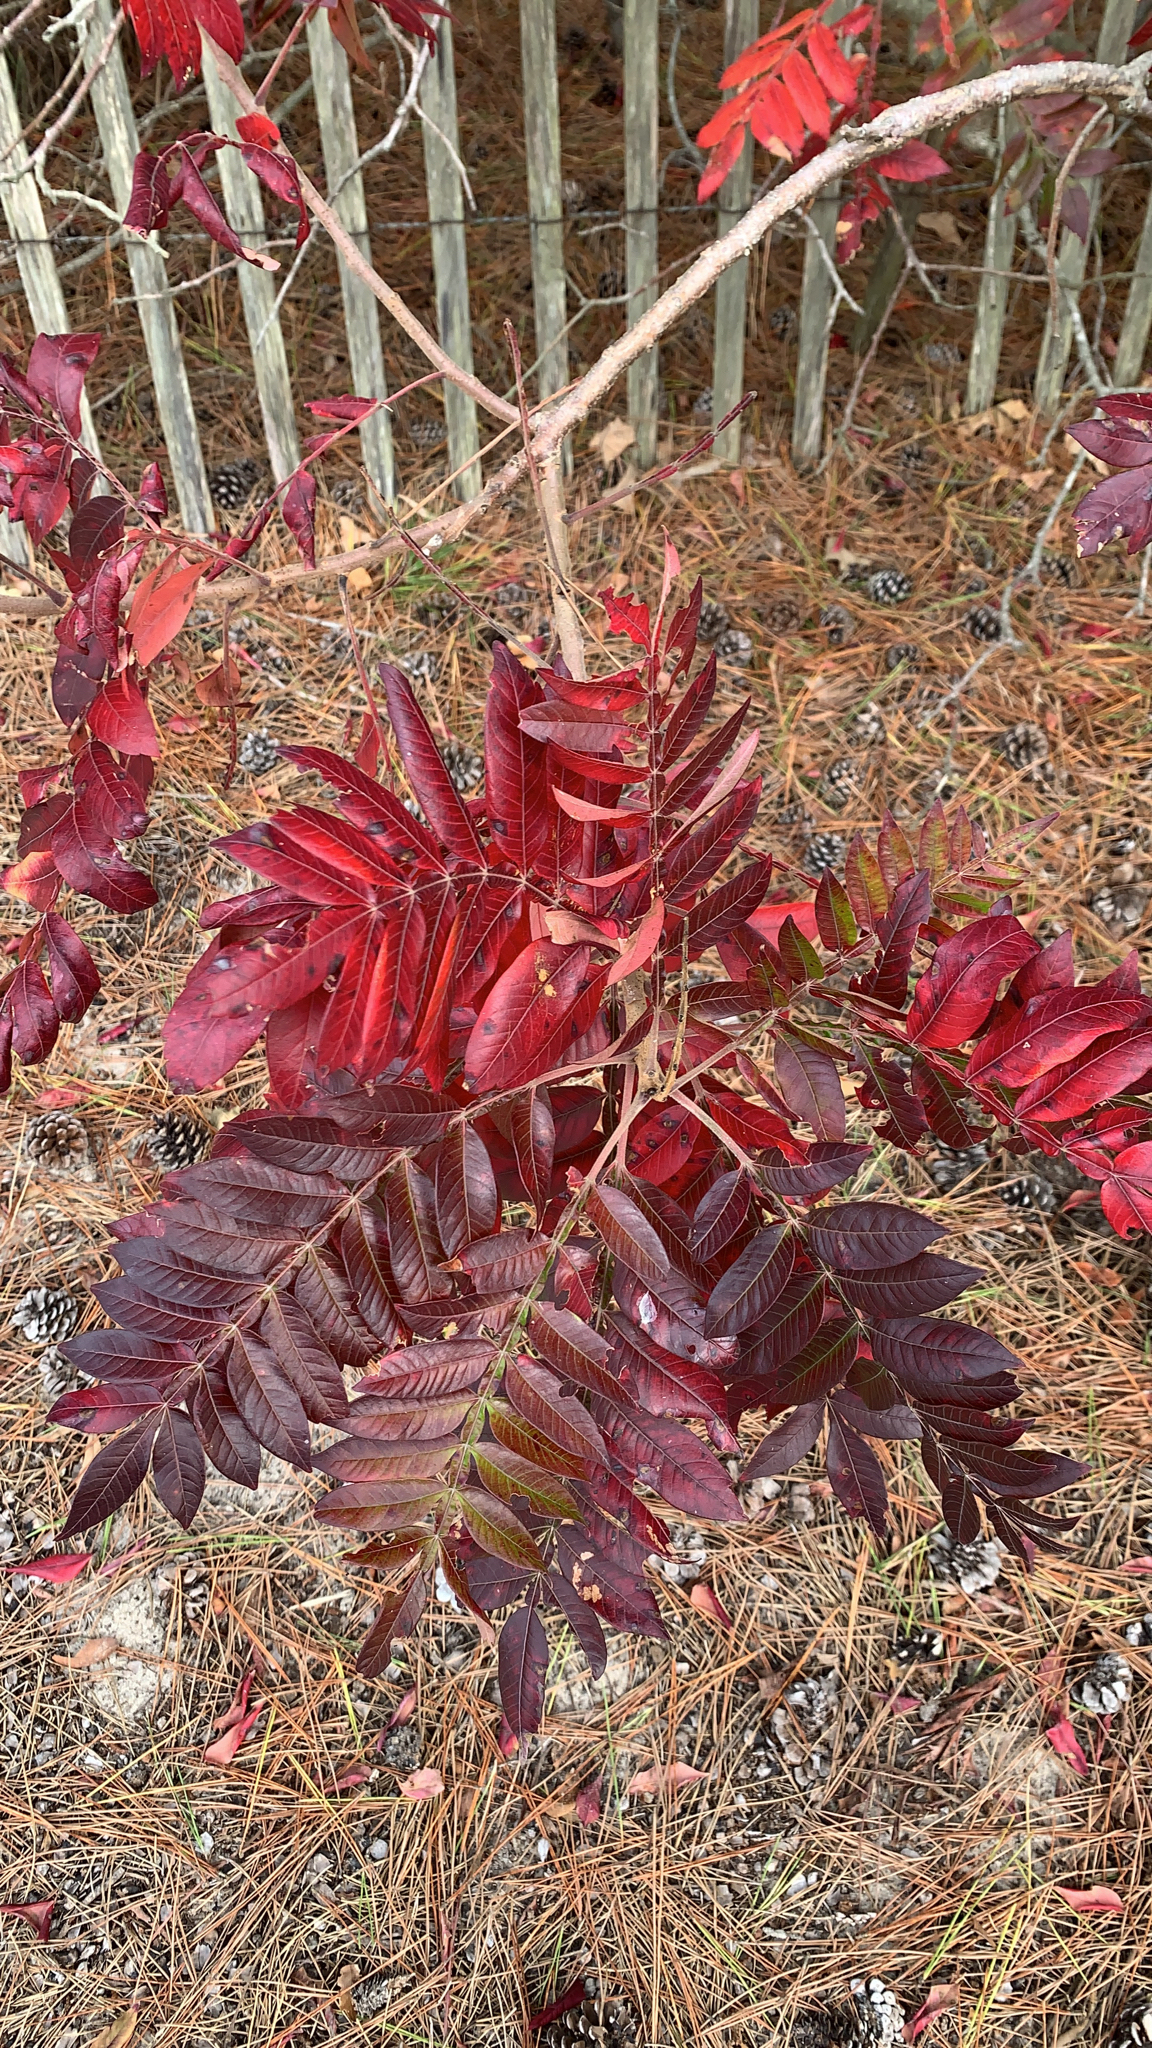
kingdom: Plantae
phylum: Tracheophyta
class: Magnoliopsida
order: Sapindales
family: Anacardiaceae
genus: Rhus
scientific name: Rhus copallina
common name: Shining sumac
